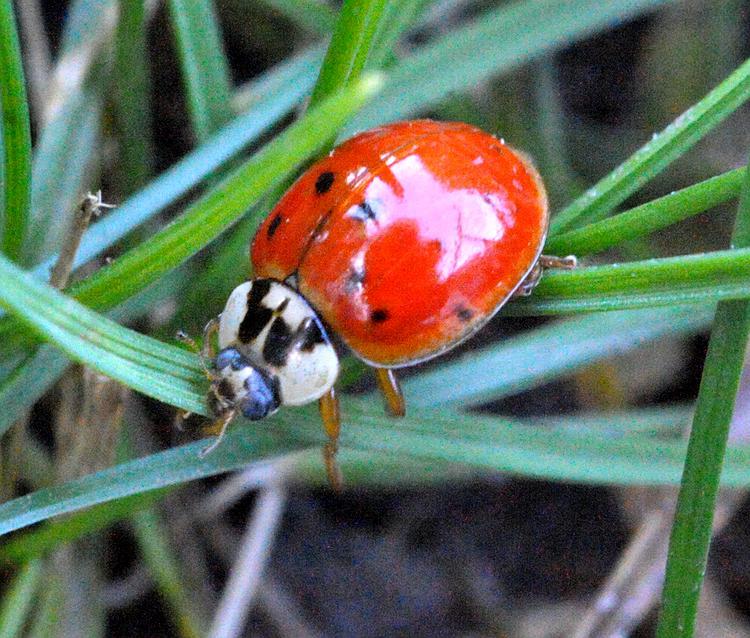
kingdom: Animalia
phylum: Arthropoda
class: Insecta
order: Coleoptera
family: Coccinellidae
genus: Harmonia
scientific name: Harmonia axyridis
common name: Harlequin ladybird
